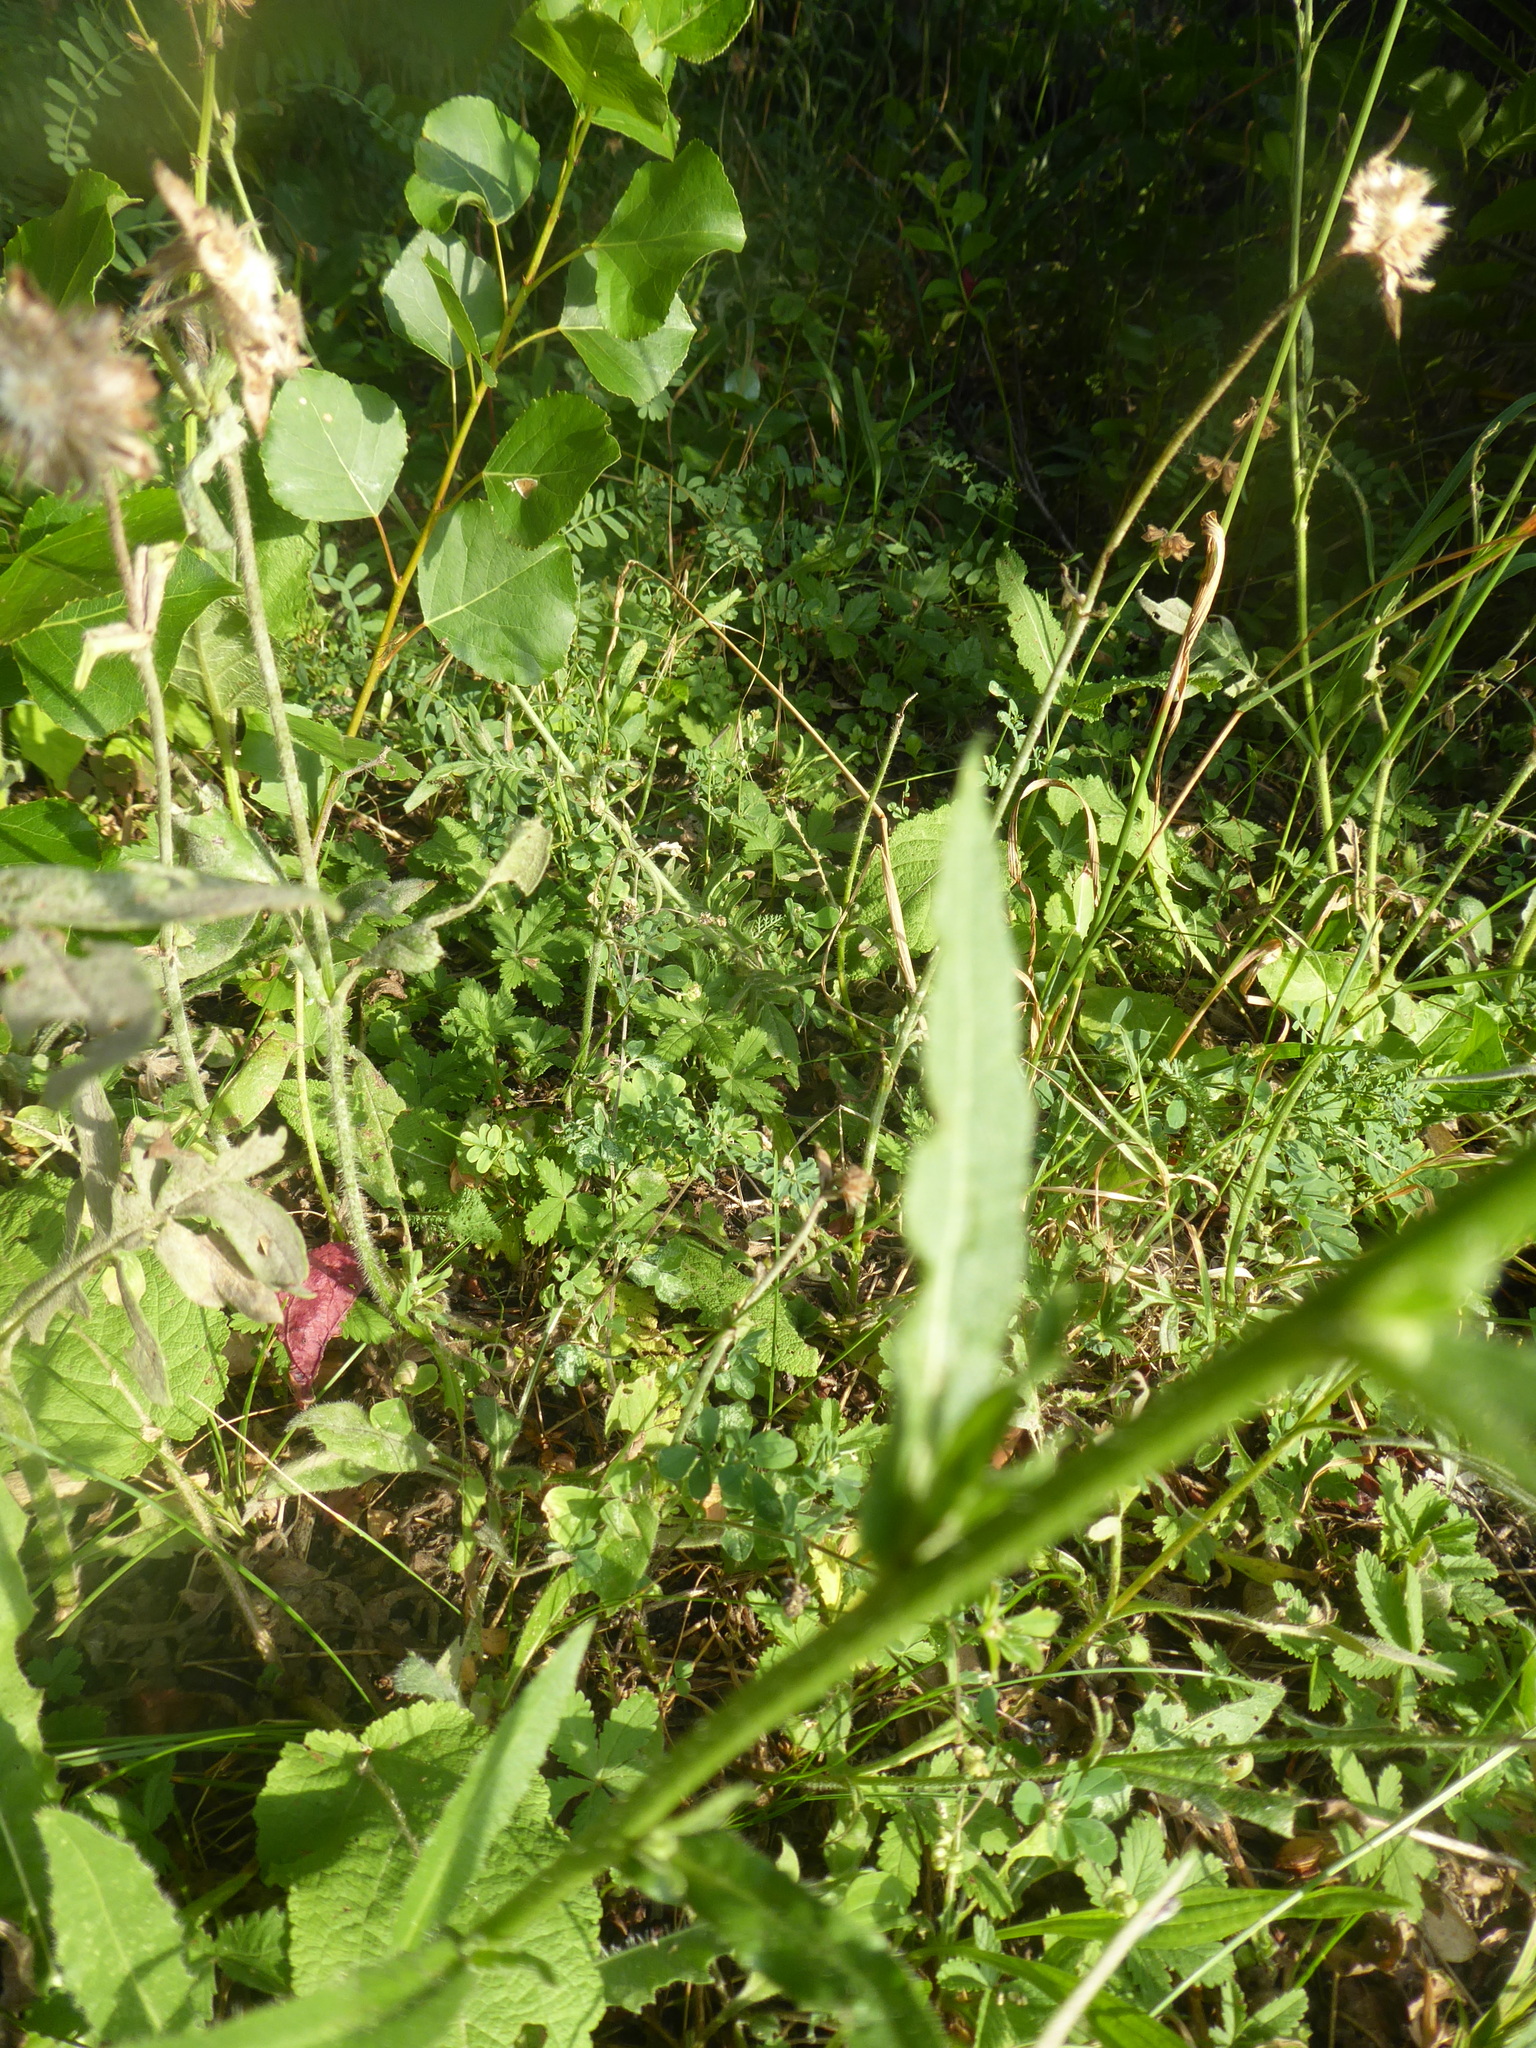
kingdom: Plantae
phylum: Tracheophyta
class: Magnoliopsida
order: Asterales
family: Asteraceae
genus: Picris
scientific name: Picris hieracioides
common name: Hawkweed oxtongue
